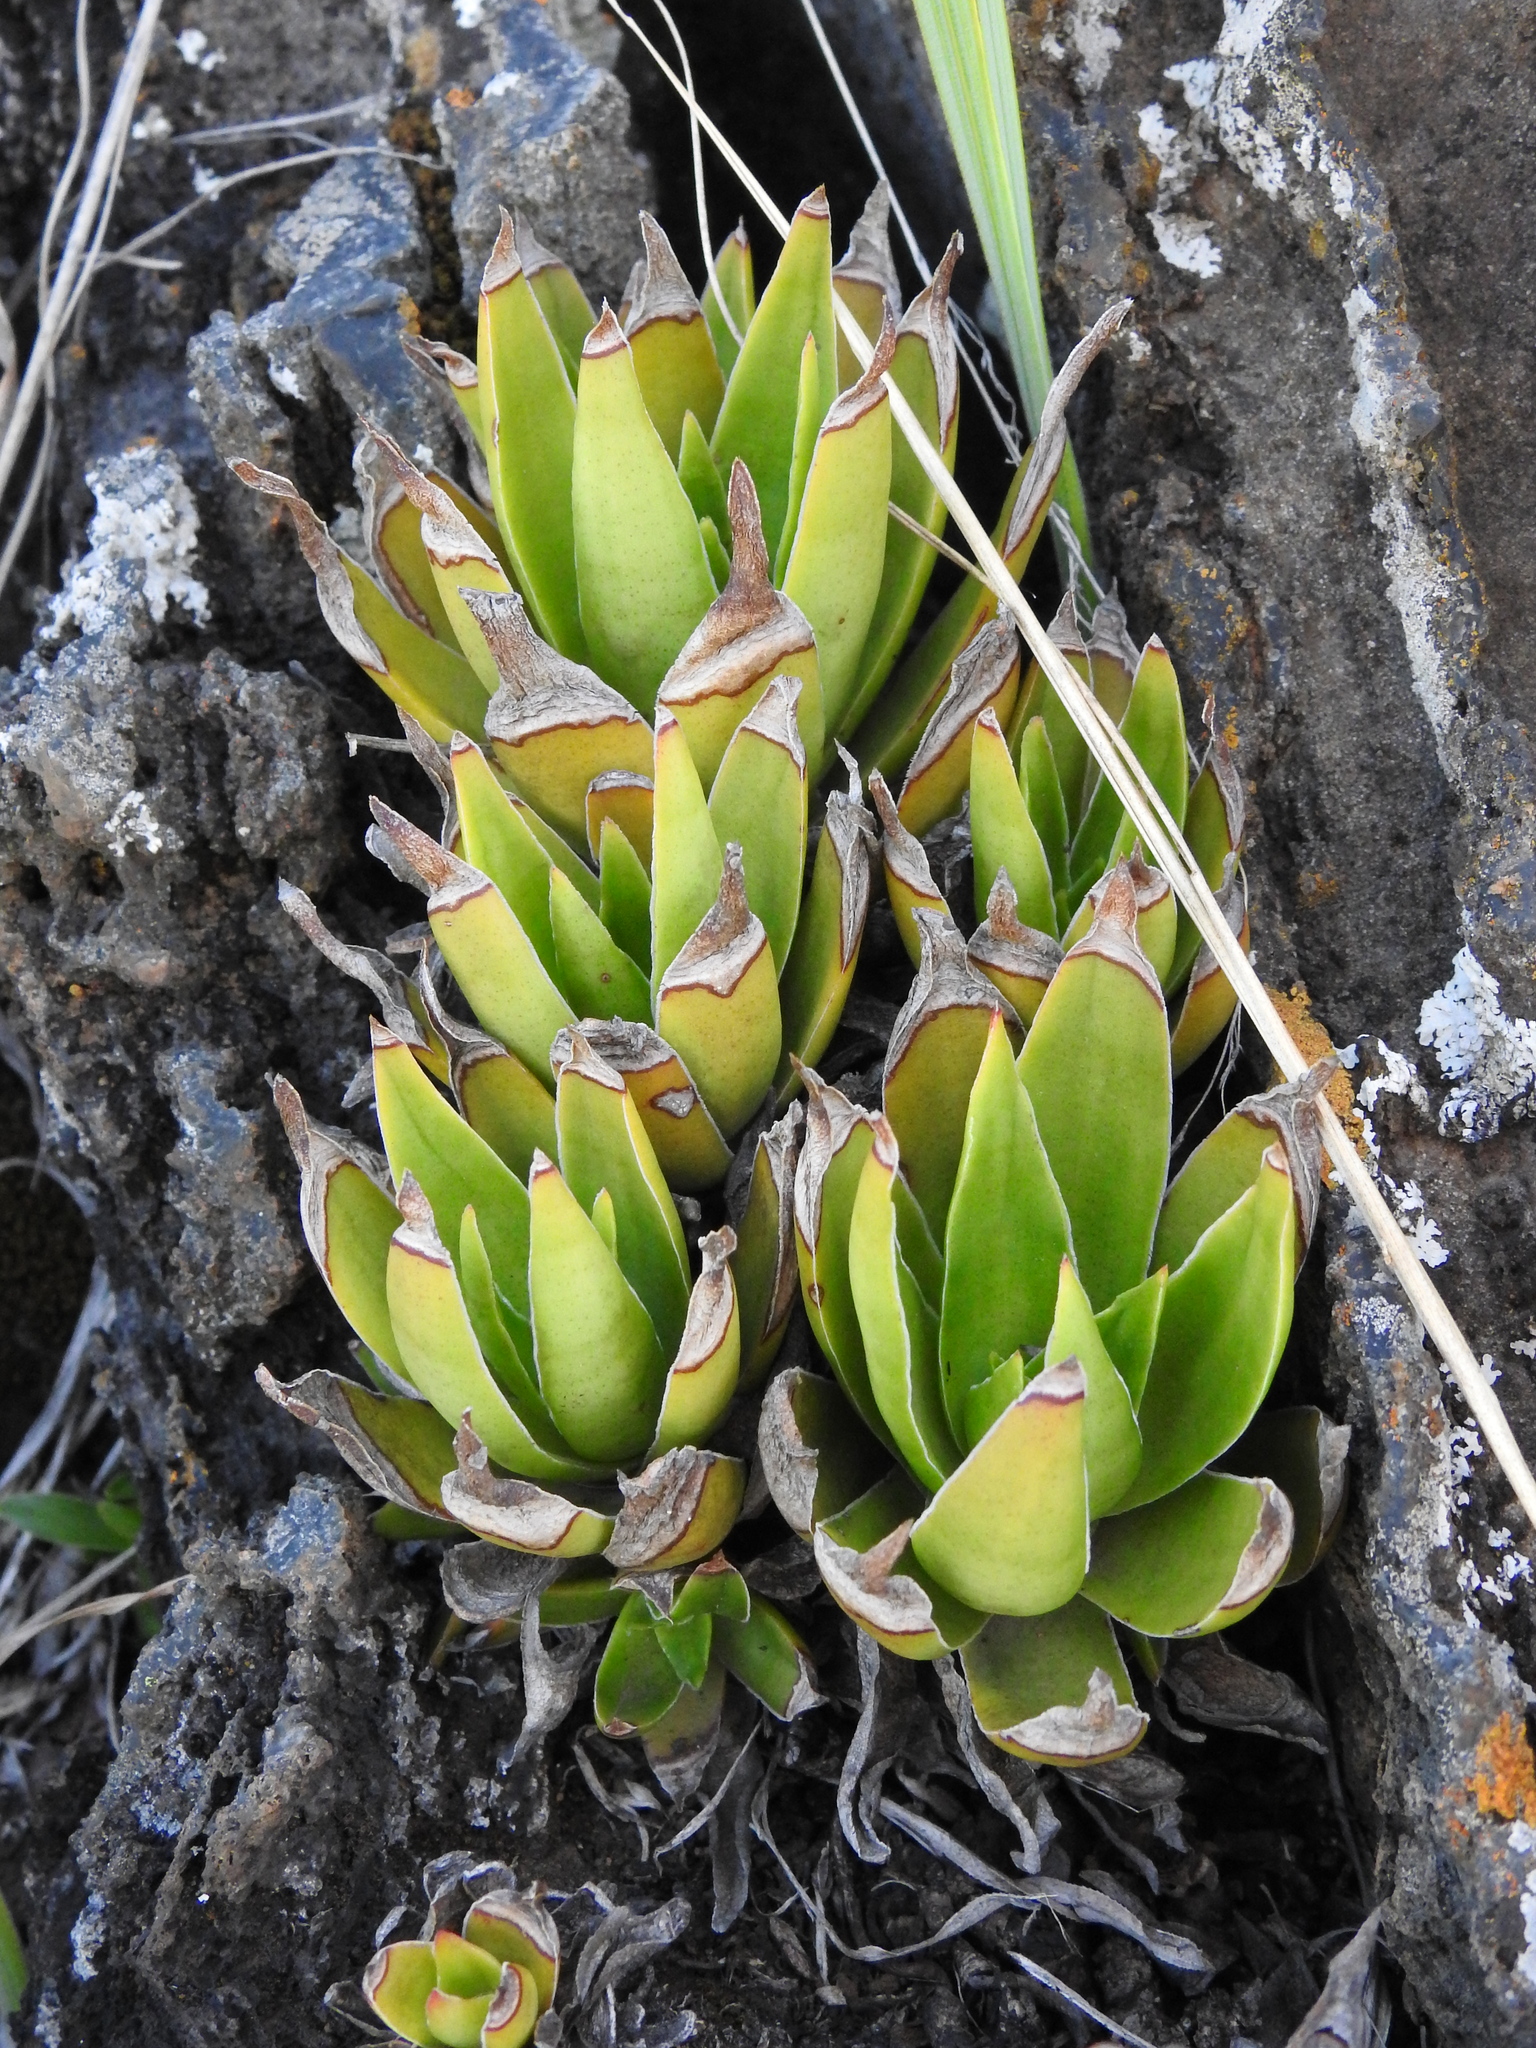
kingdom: Plantae
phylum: Tracheophyta
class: Magnoliopsida
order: Saxifragales
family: Crassulaceae
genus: Crassula
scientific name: Crassula alba
